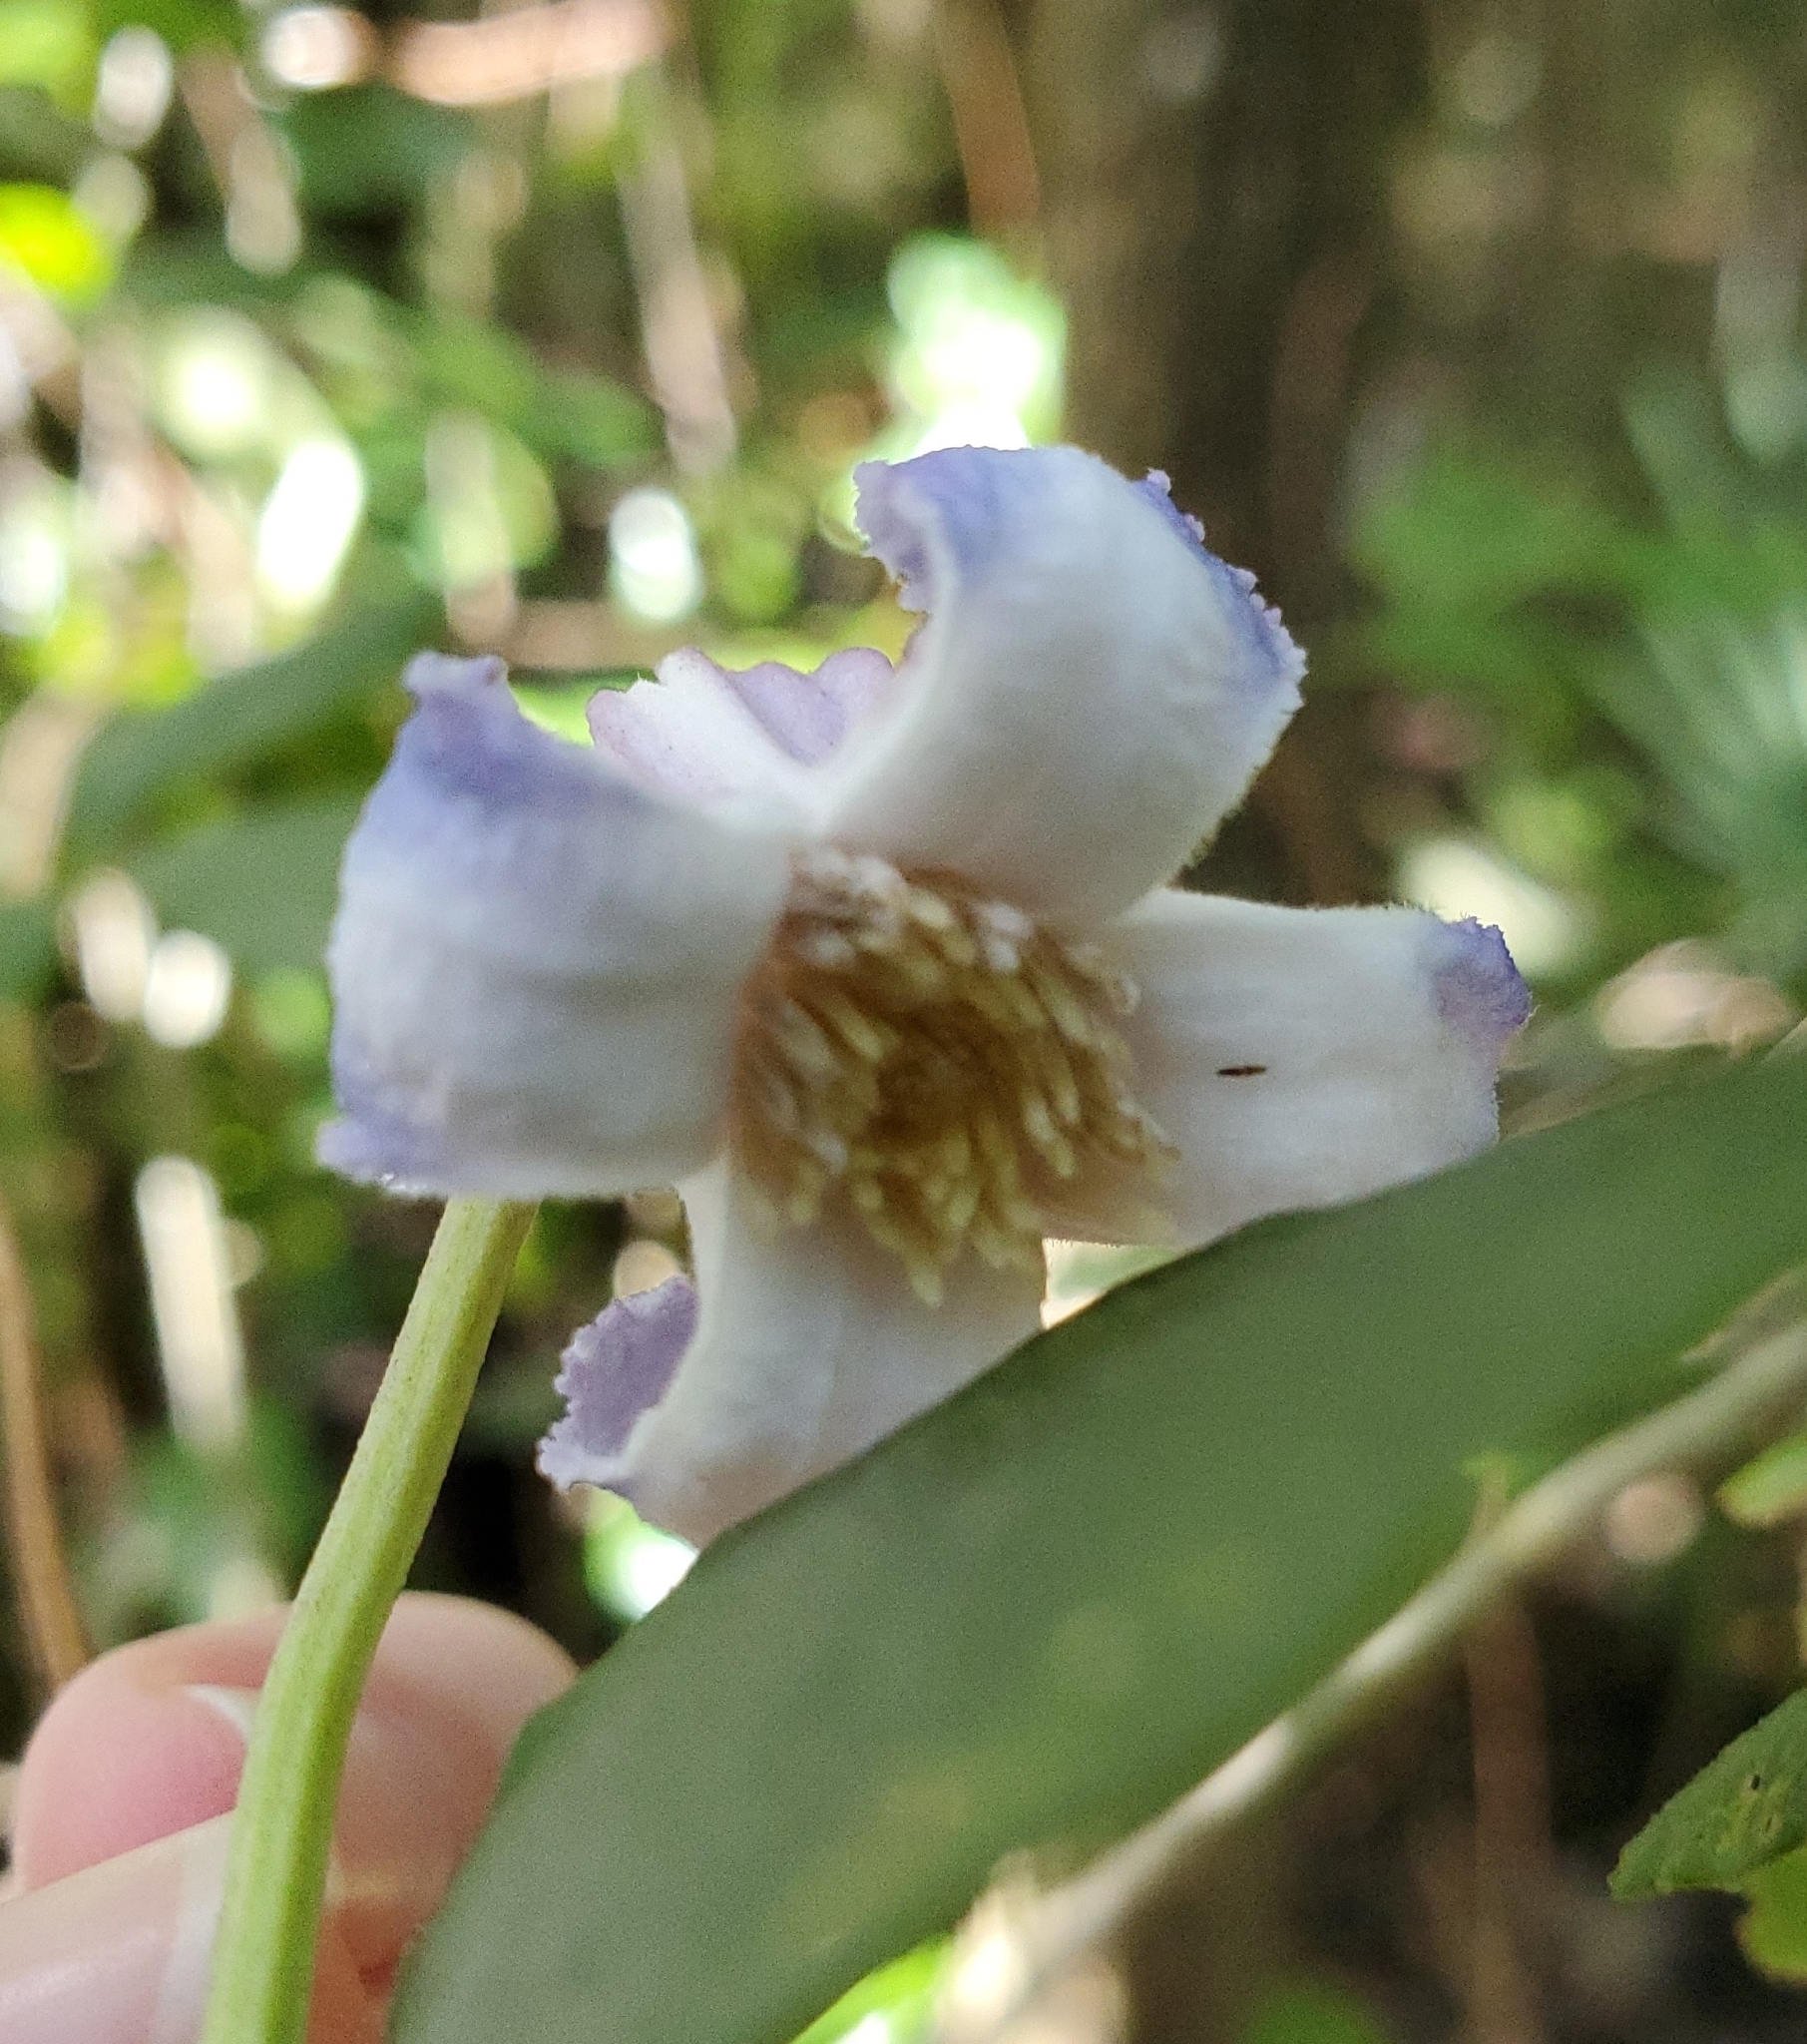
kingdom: Plantae
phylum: Tracheophyta
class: Magnoliopsida
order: Ranunculales
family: Ranunculaceae
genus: Clematis
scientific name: Clematis crispa
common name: Curly clematis
